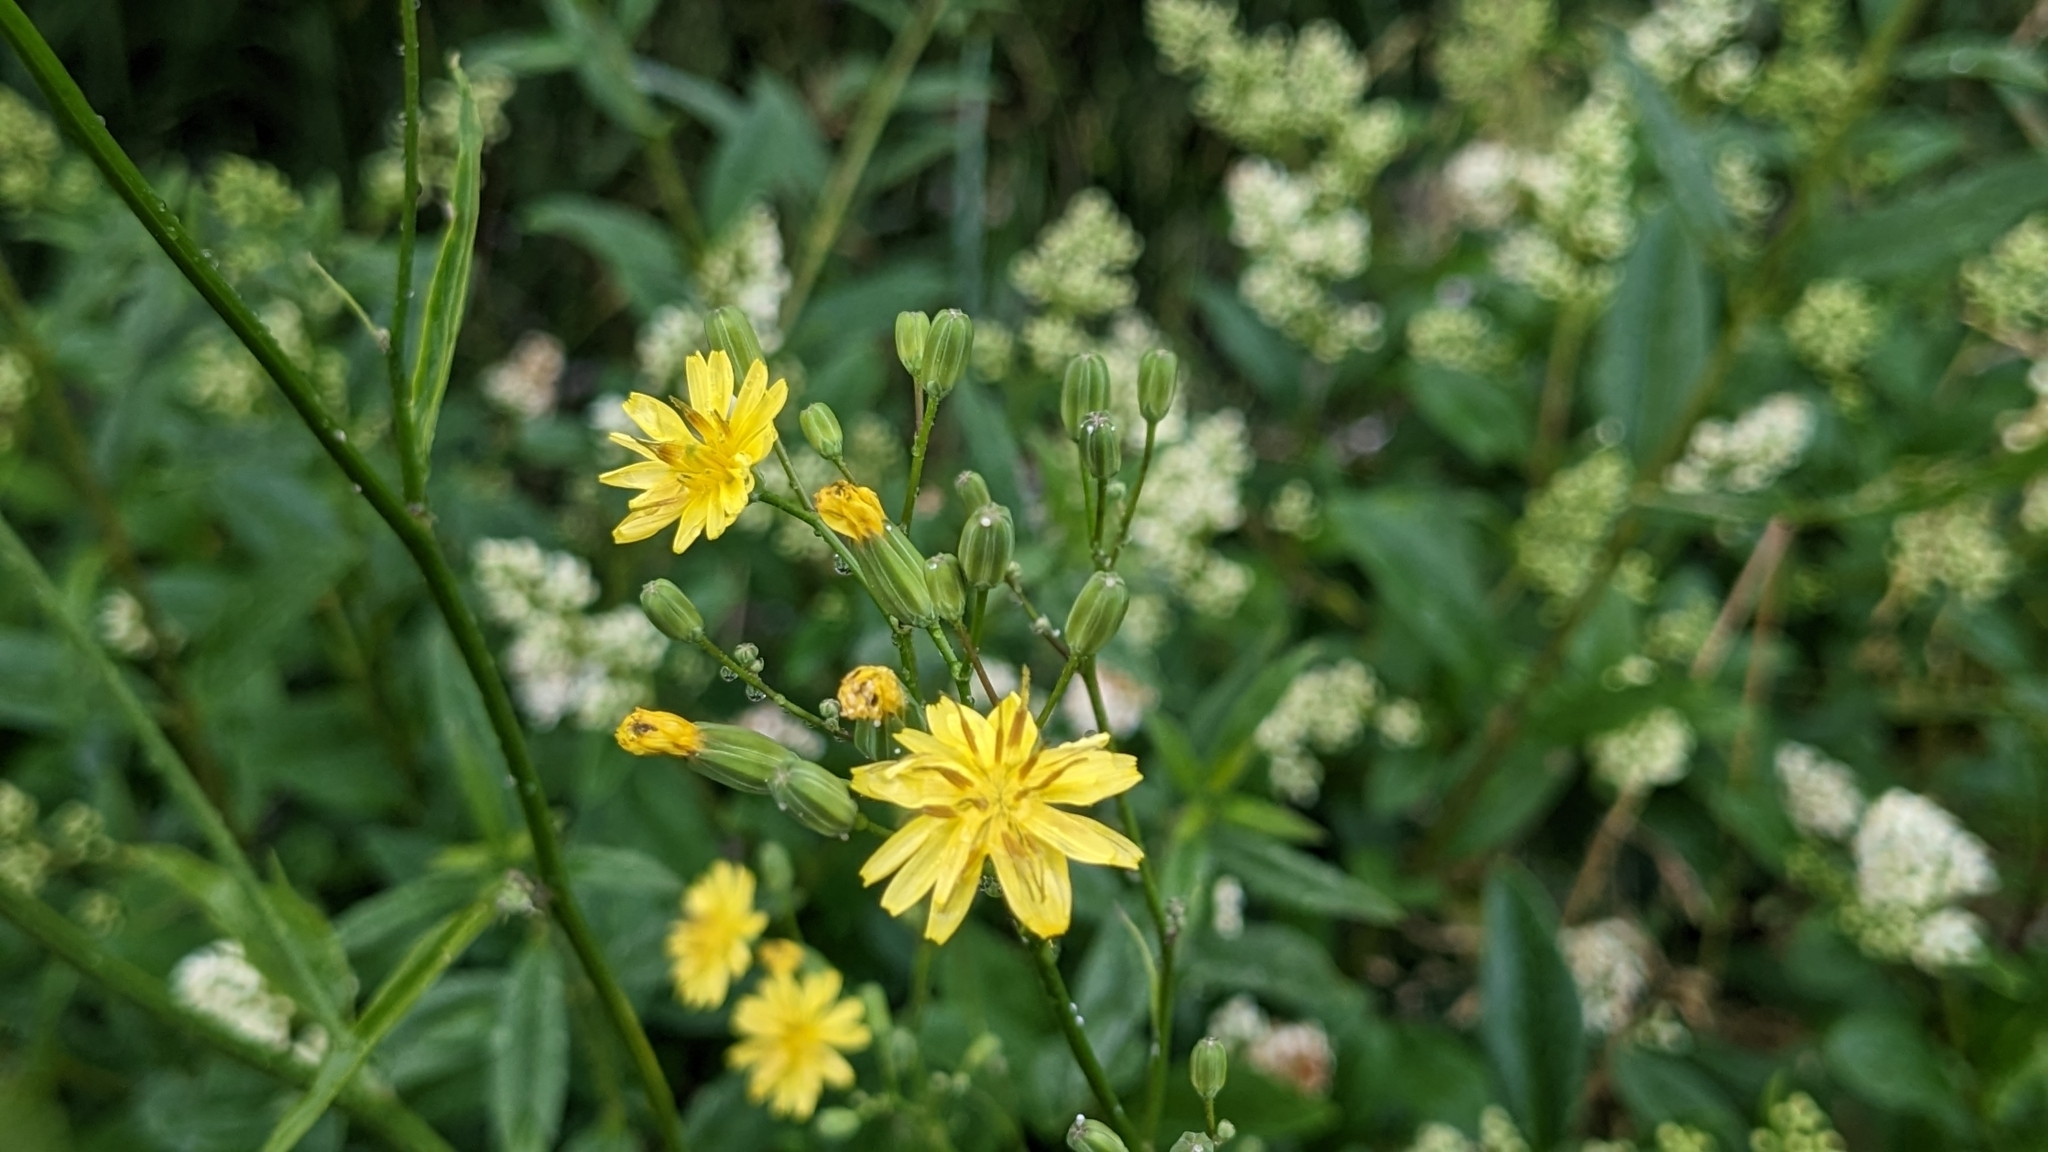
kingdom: Plantae
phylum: Tracheophyta
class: Magnoliopsida
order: Asterales
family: Asteraceae
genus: Lapsana
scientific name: Lapsana communis
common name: Nipplewort
